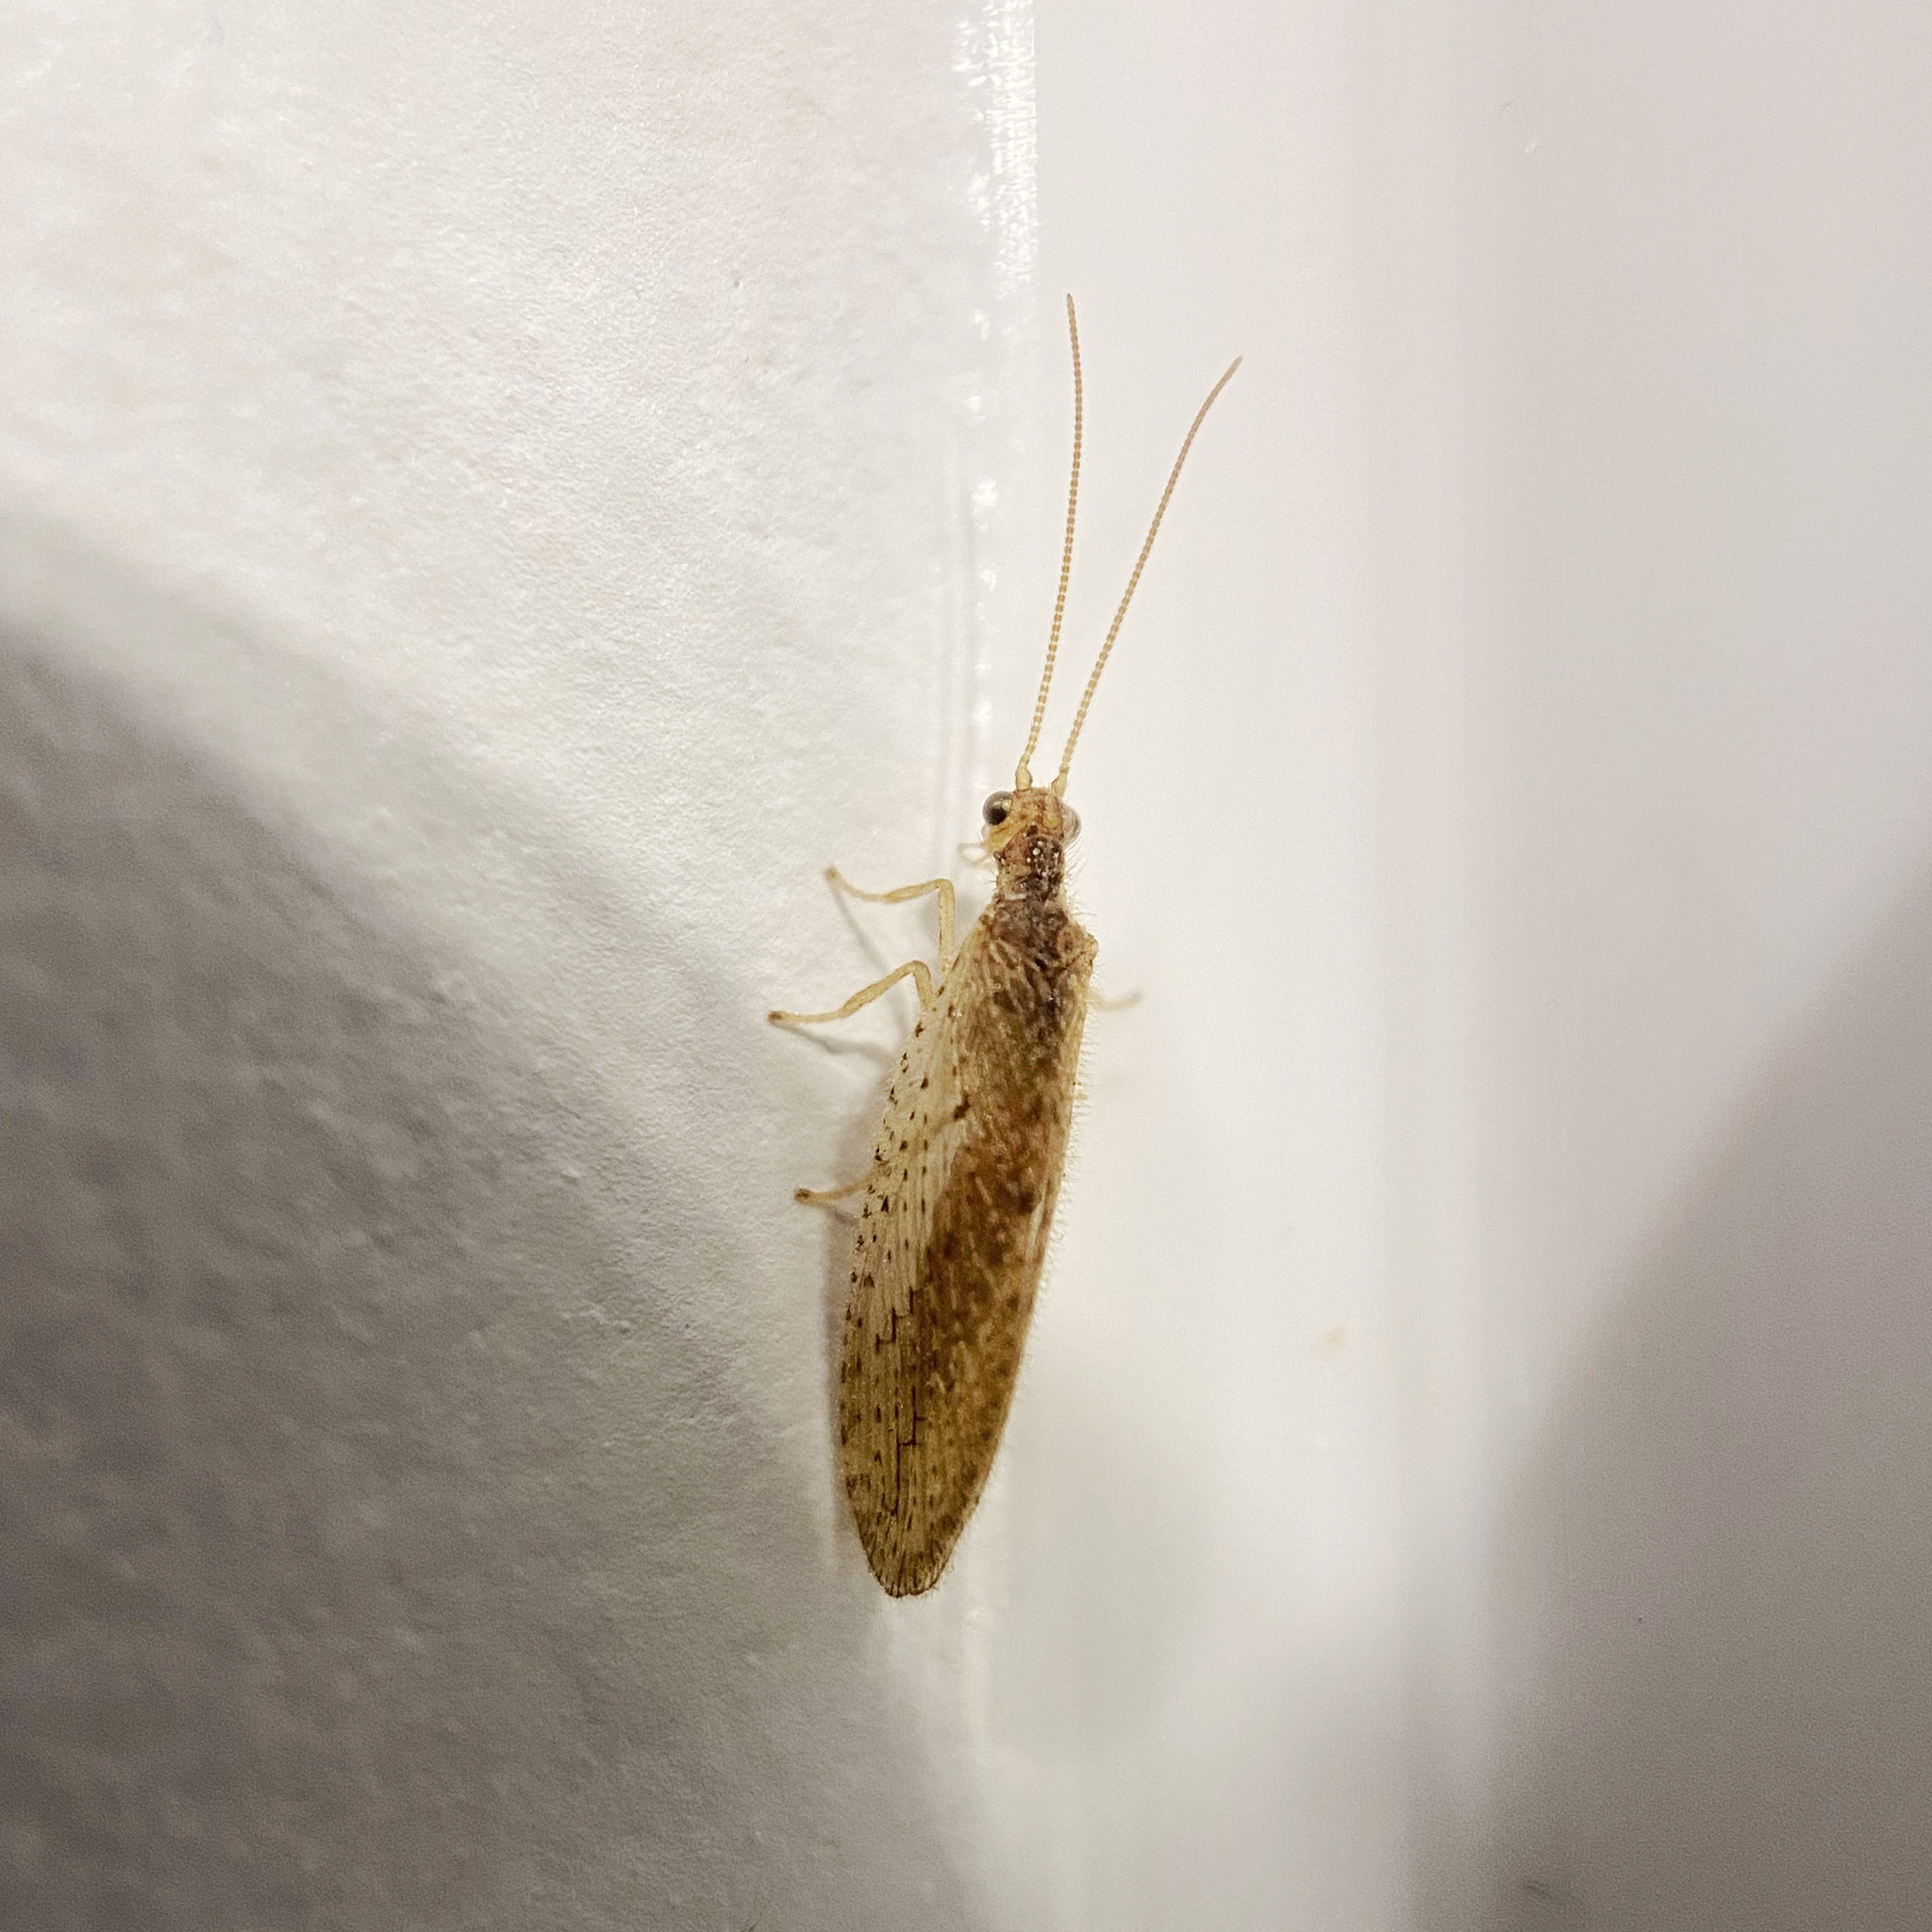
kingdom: Animalia
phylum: Arthropoda
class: Insecta
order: Neuroptera
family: Hemerobiidae
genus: Micromus
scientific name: Micromus tasmaniae
